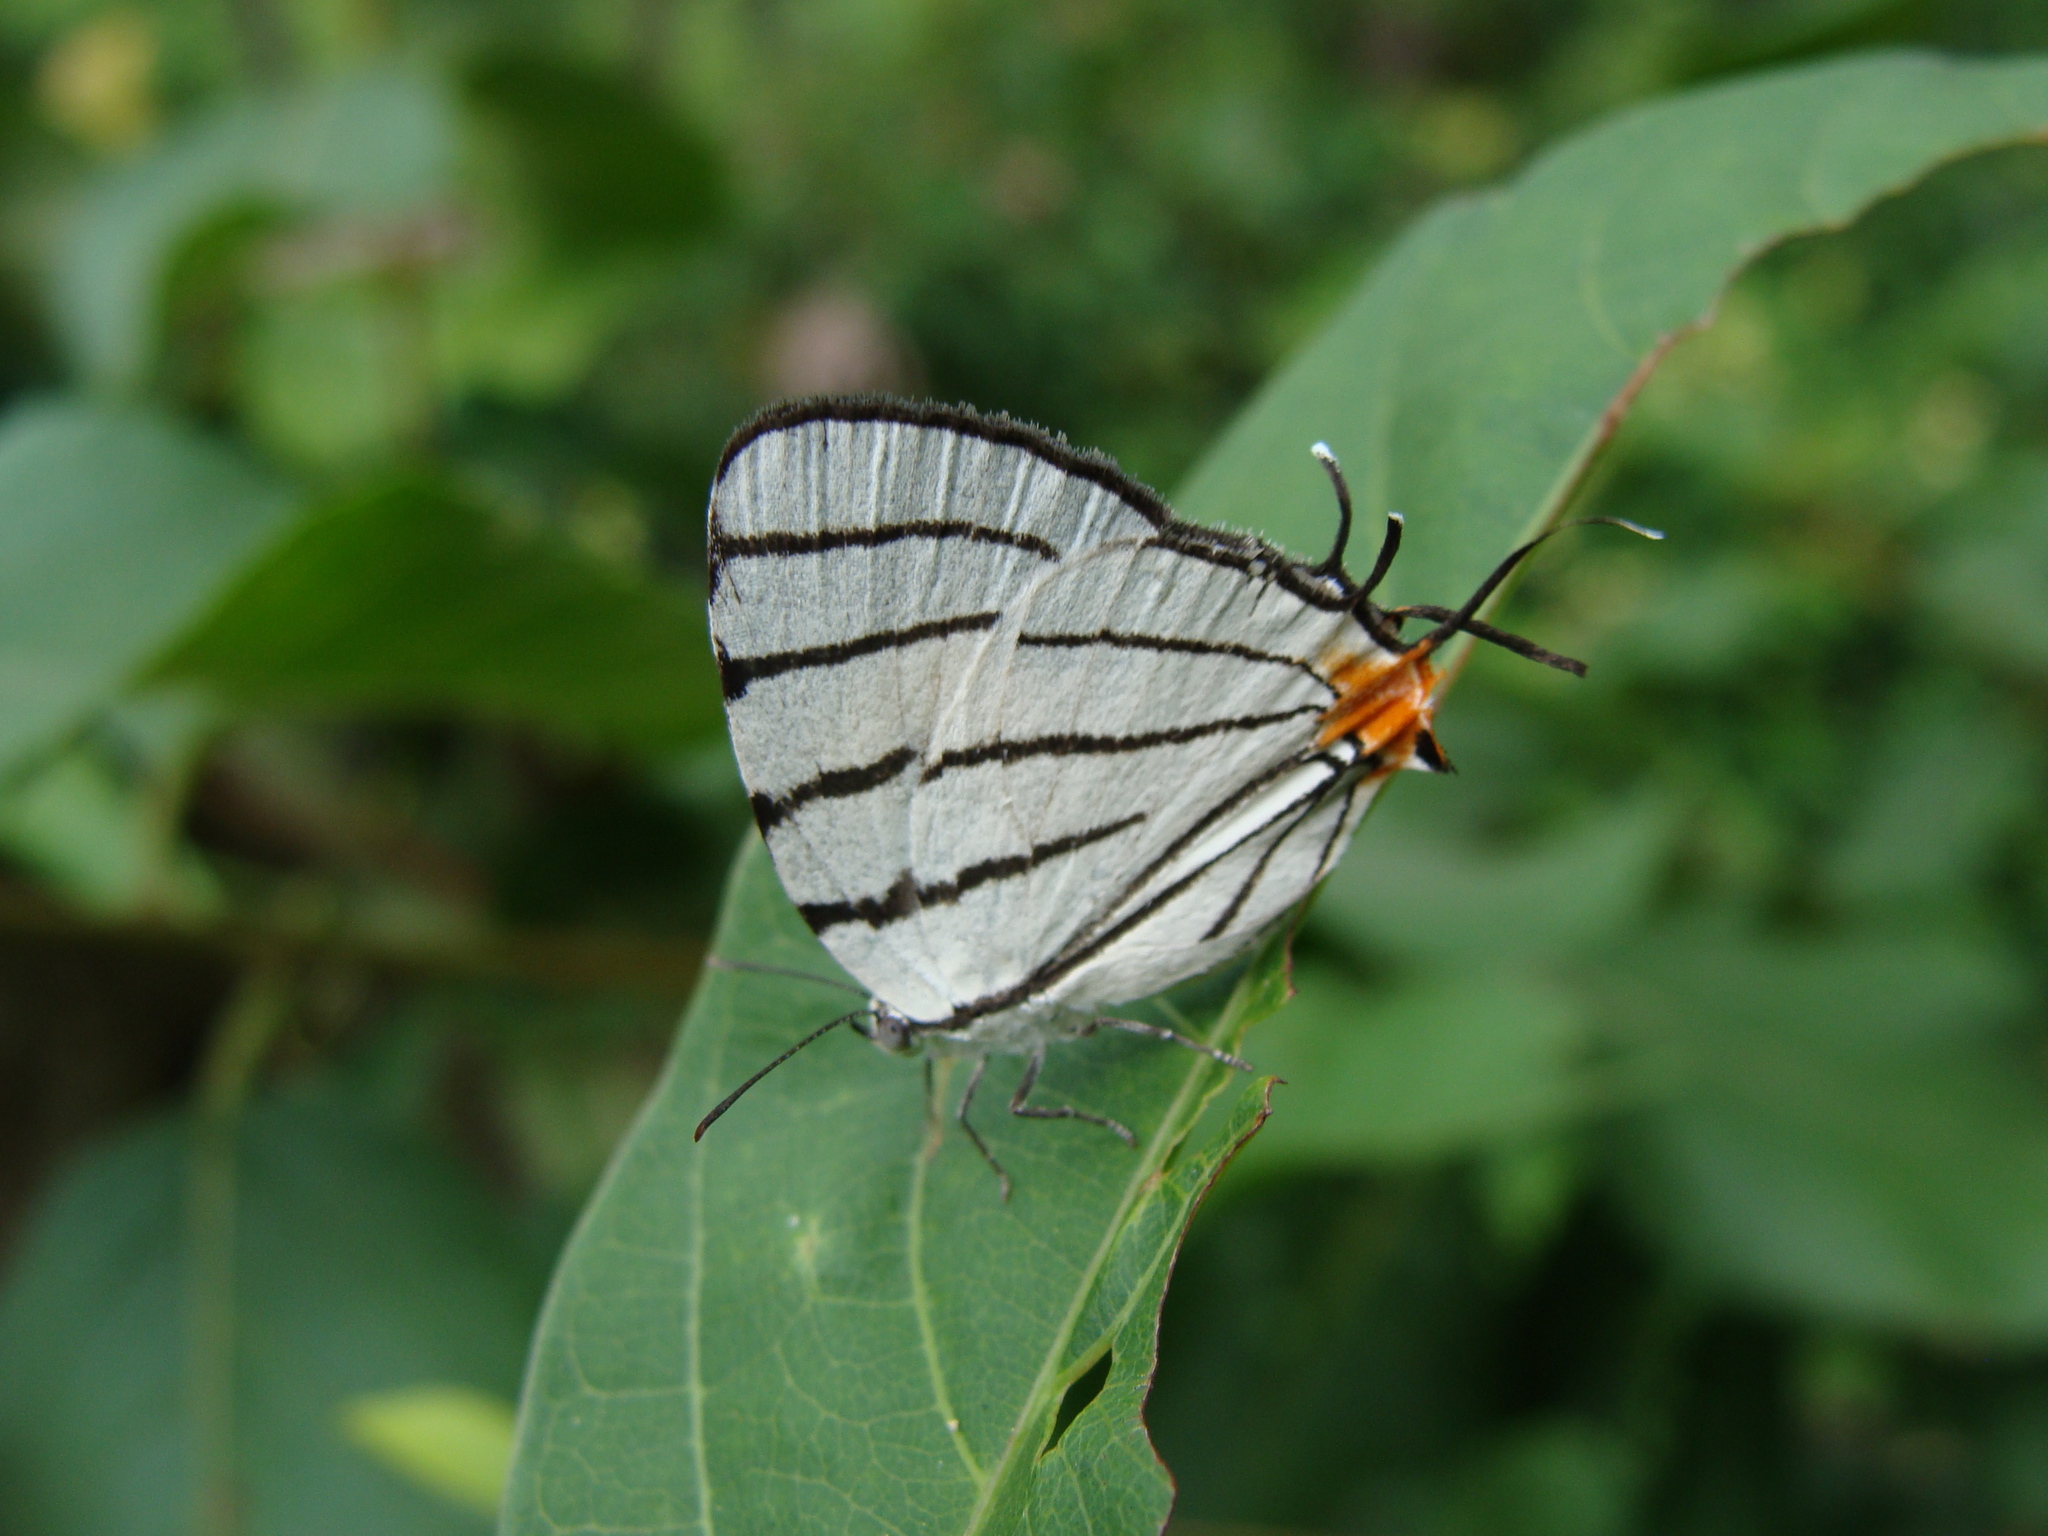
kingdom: Animalia
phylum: Arthropoda
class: Insecta
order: Lepidoptera
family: Lycaenidae
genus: Arawacus
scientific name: Arawacus sito
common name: Fine-lined hairstreak
